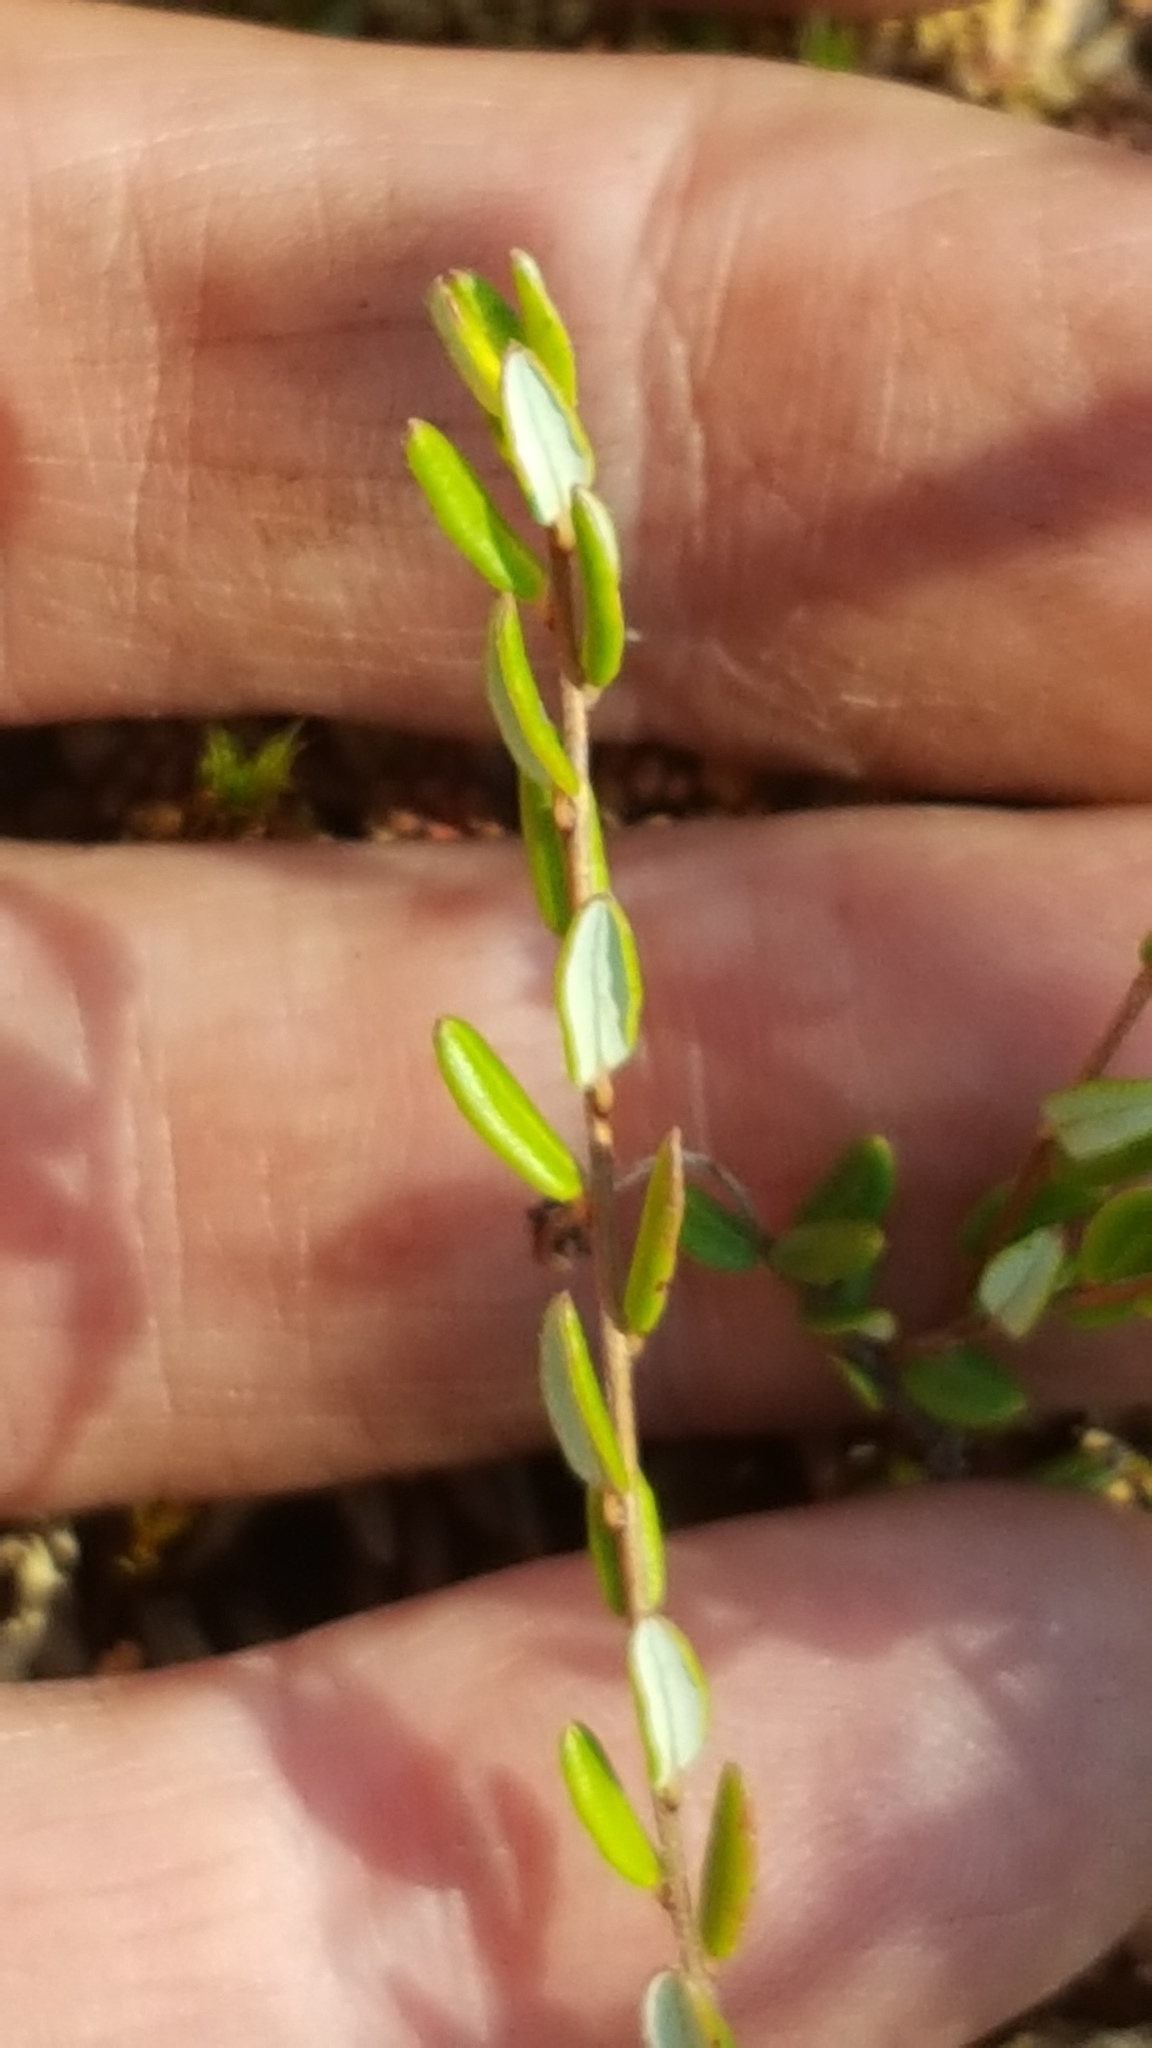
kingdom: Plantae
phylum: Tracheophyta
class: Magnoliopsida
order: Ericales
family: Ericaceae
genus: Vaccinium
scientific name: Vaccinium oxycoccos
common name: Cranberry
